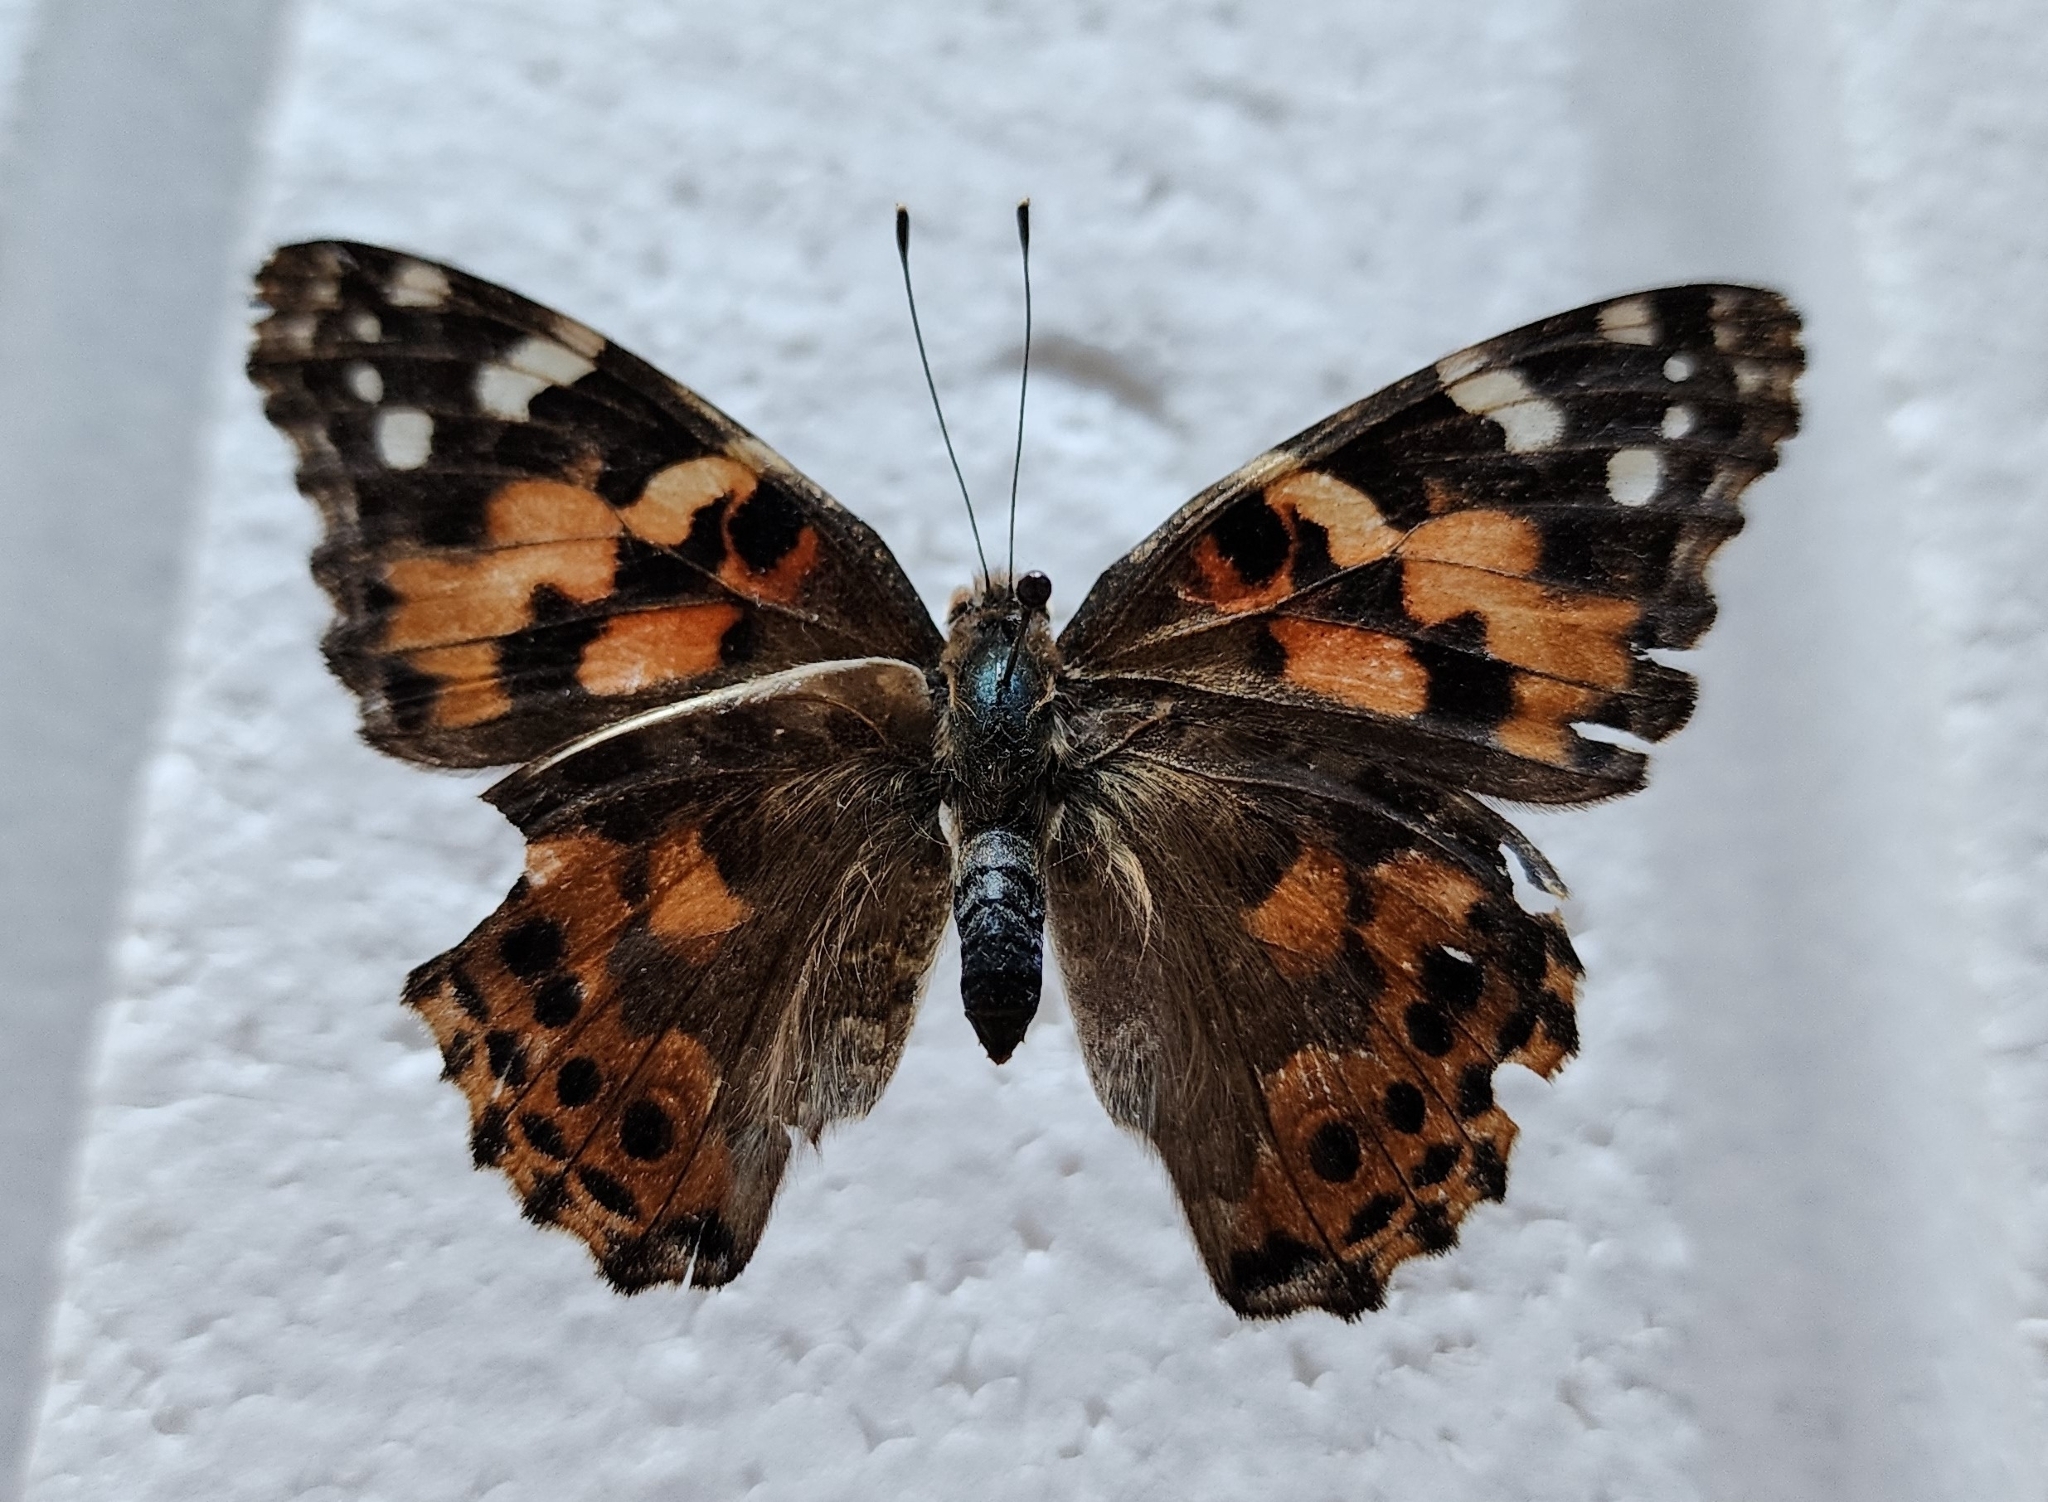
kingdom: Animalia
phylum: Arthropoda
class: Insecta
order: Lepidoptera
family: Nymphalidae
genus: Vanessa
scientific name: Vanessa cardui
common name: Painted lady
